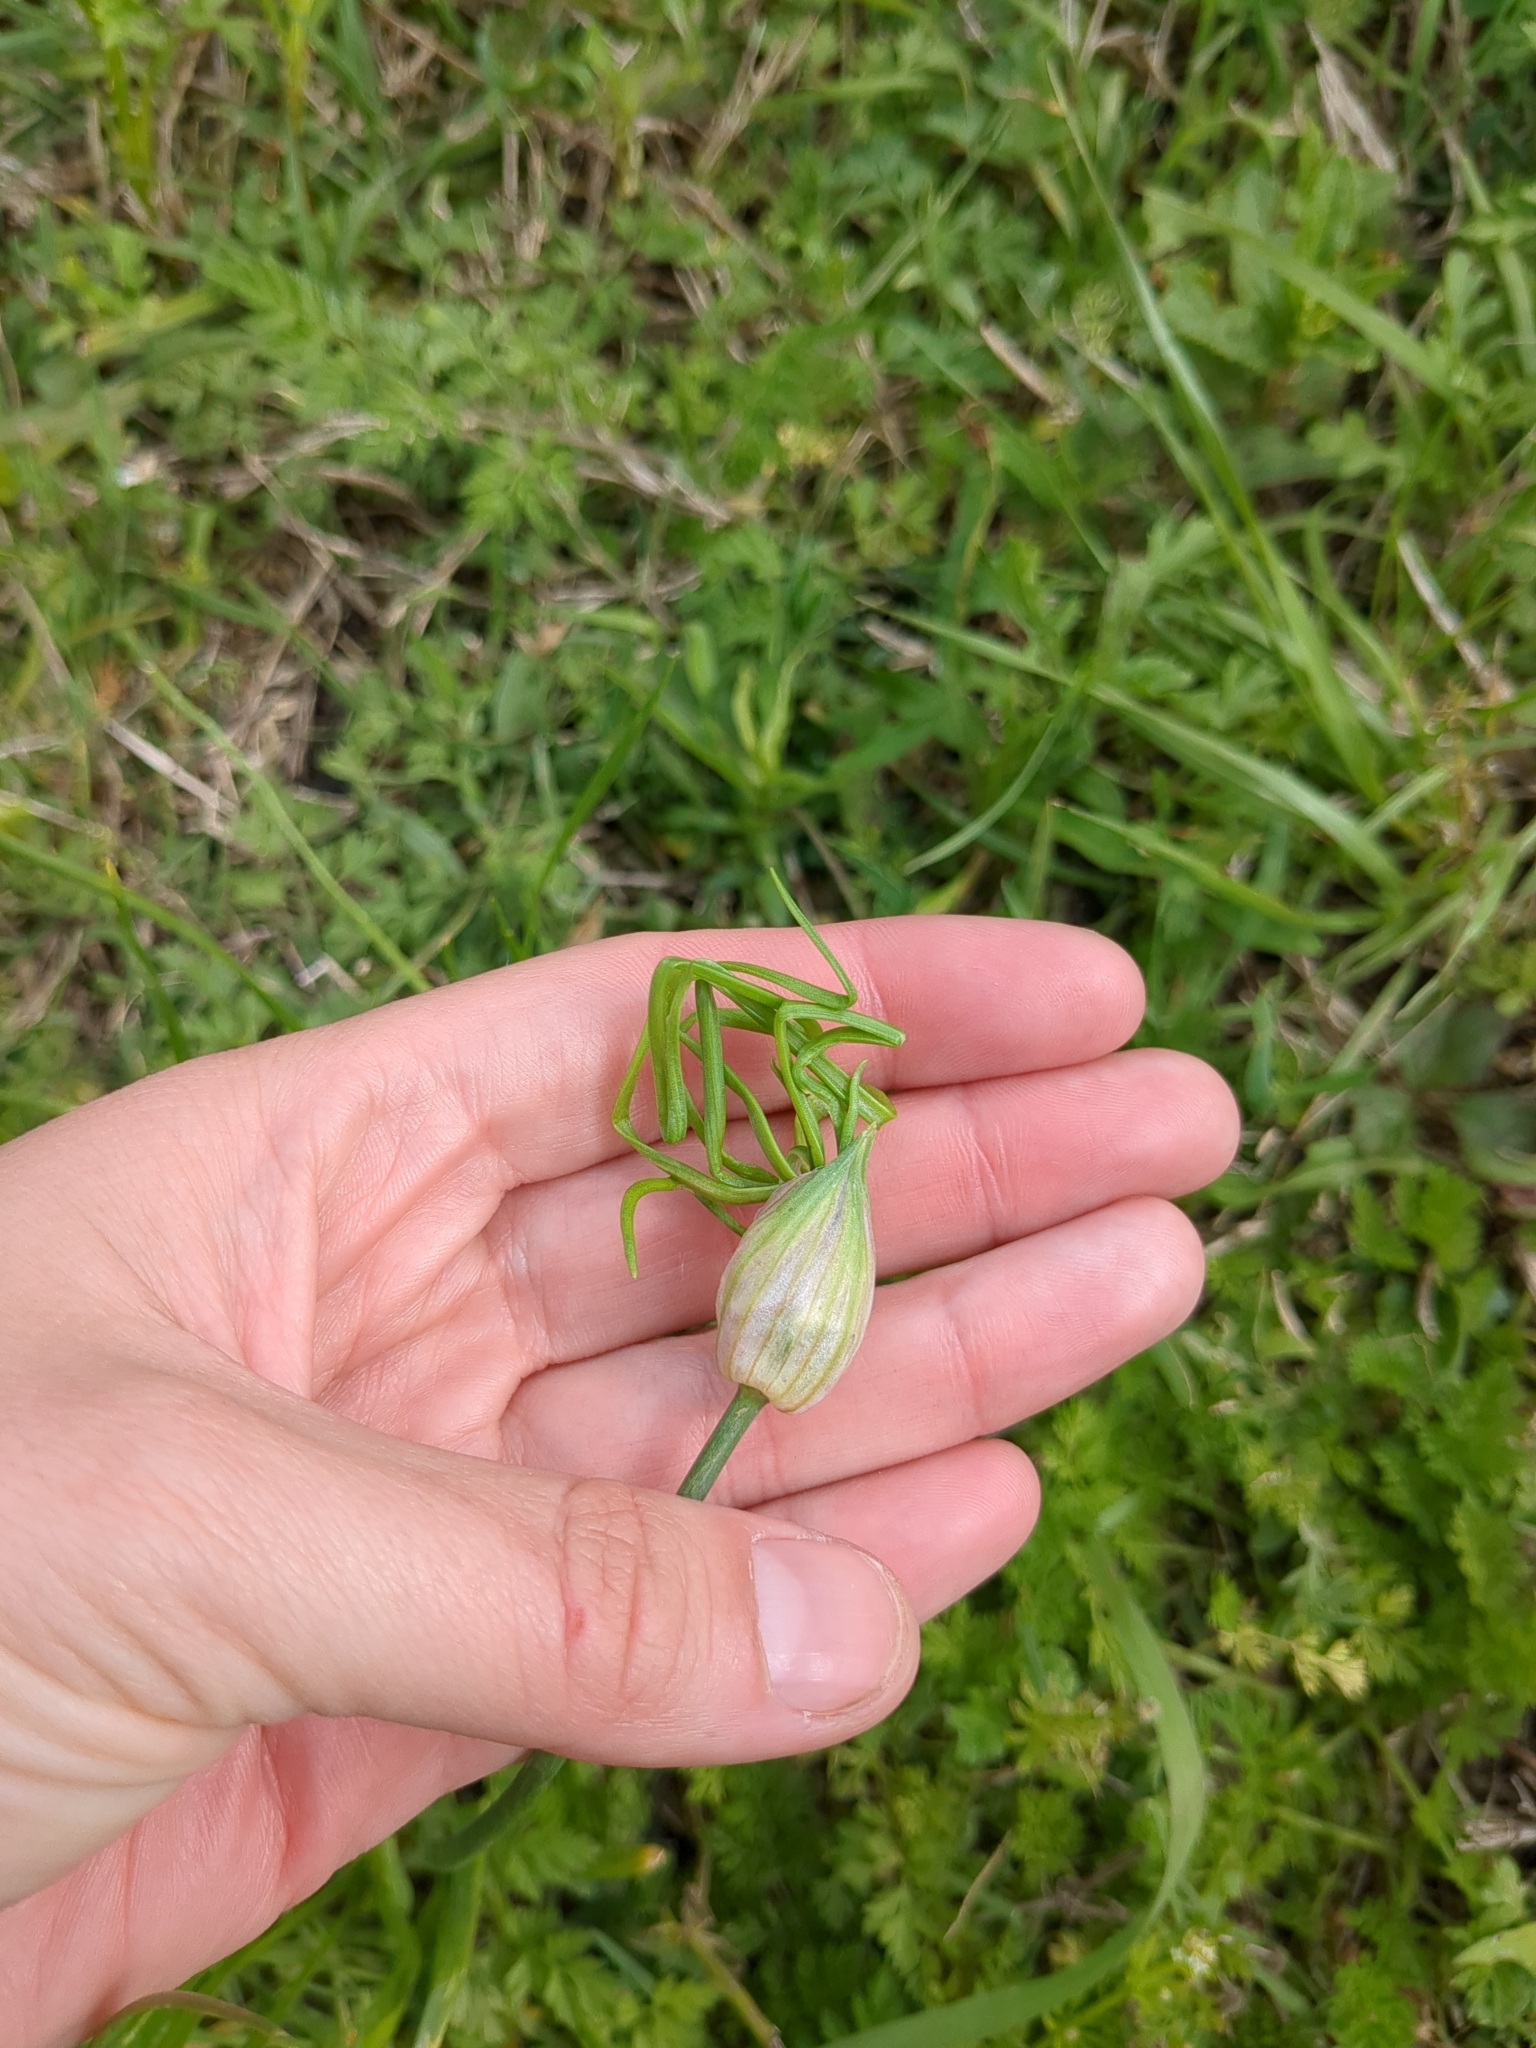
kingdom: Plantae
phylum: Tracheophyta
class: Liliopsida
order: Asparagales
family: Amaryllidaceae
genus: Allium
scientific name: Allium canadense
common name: Meadow garlic
